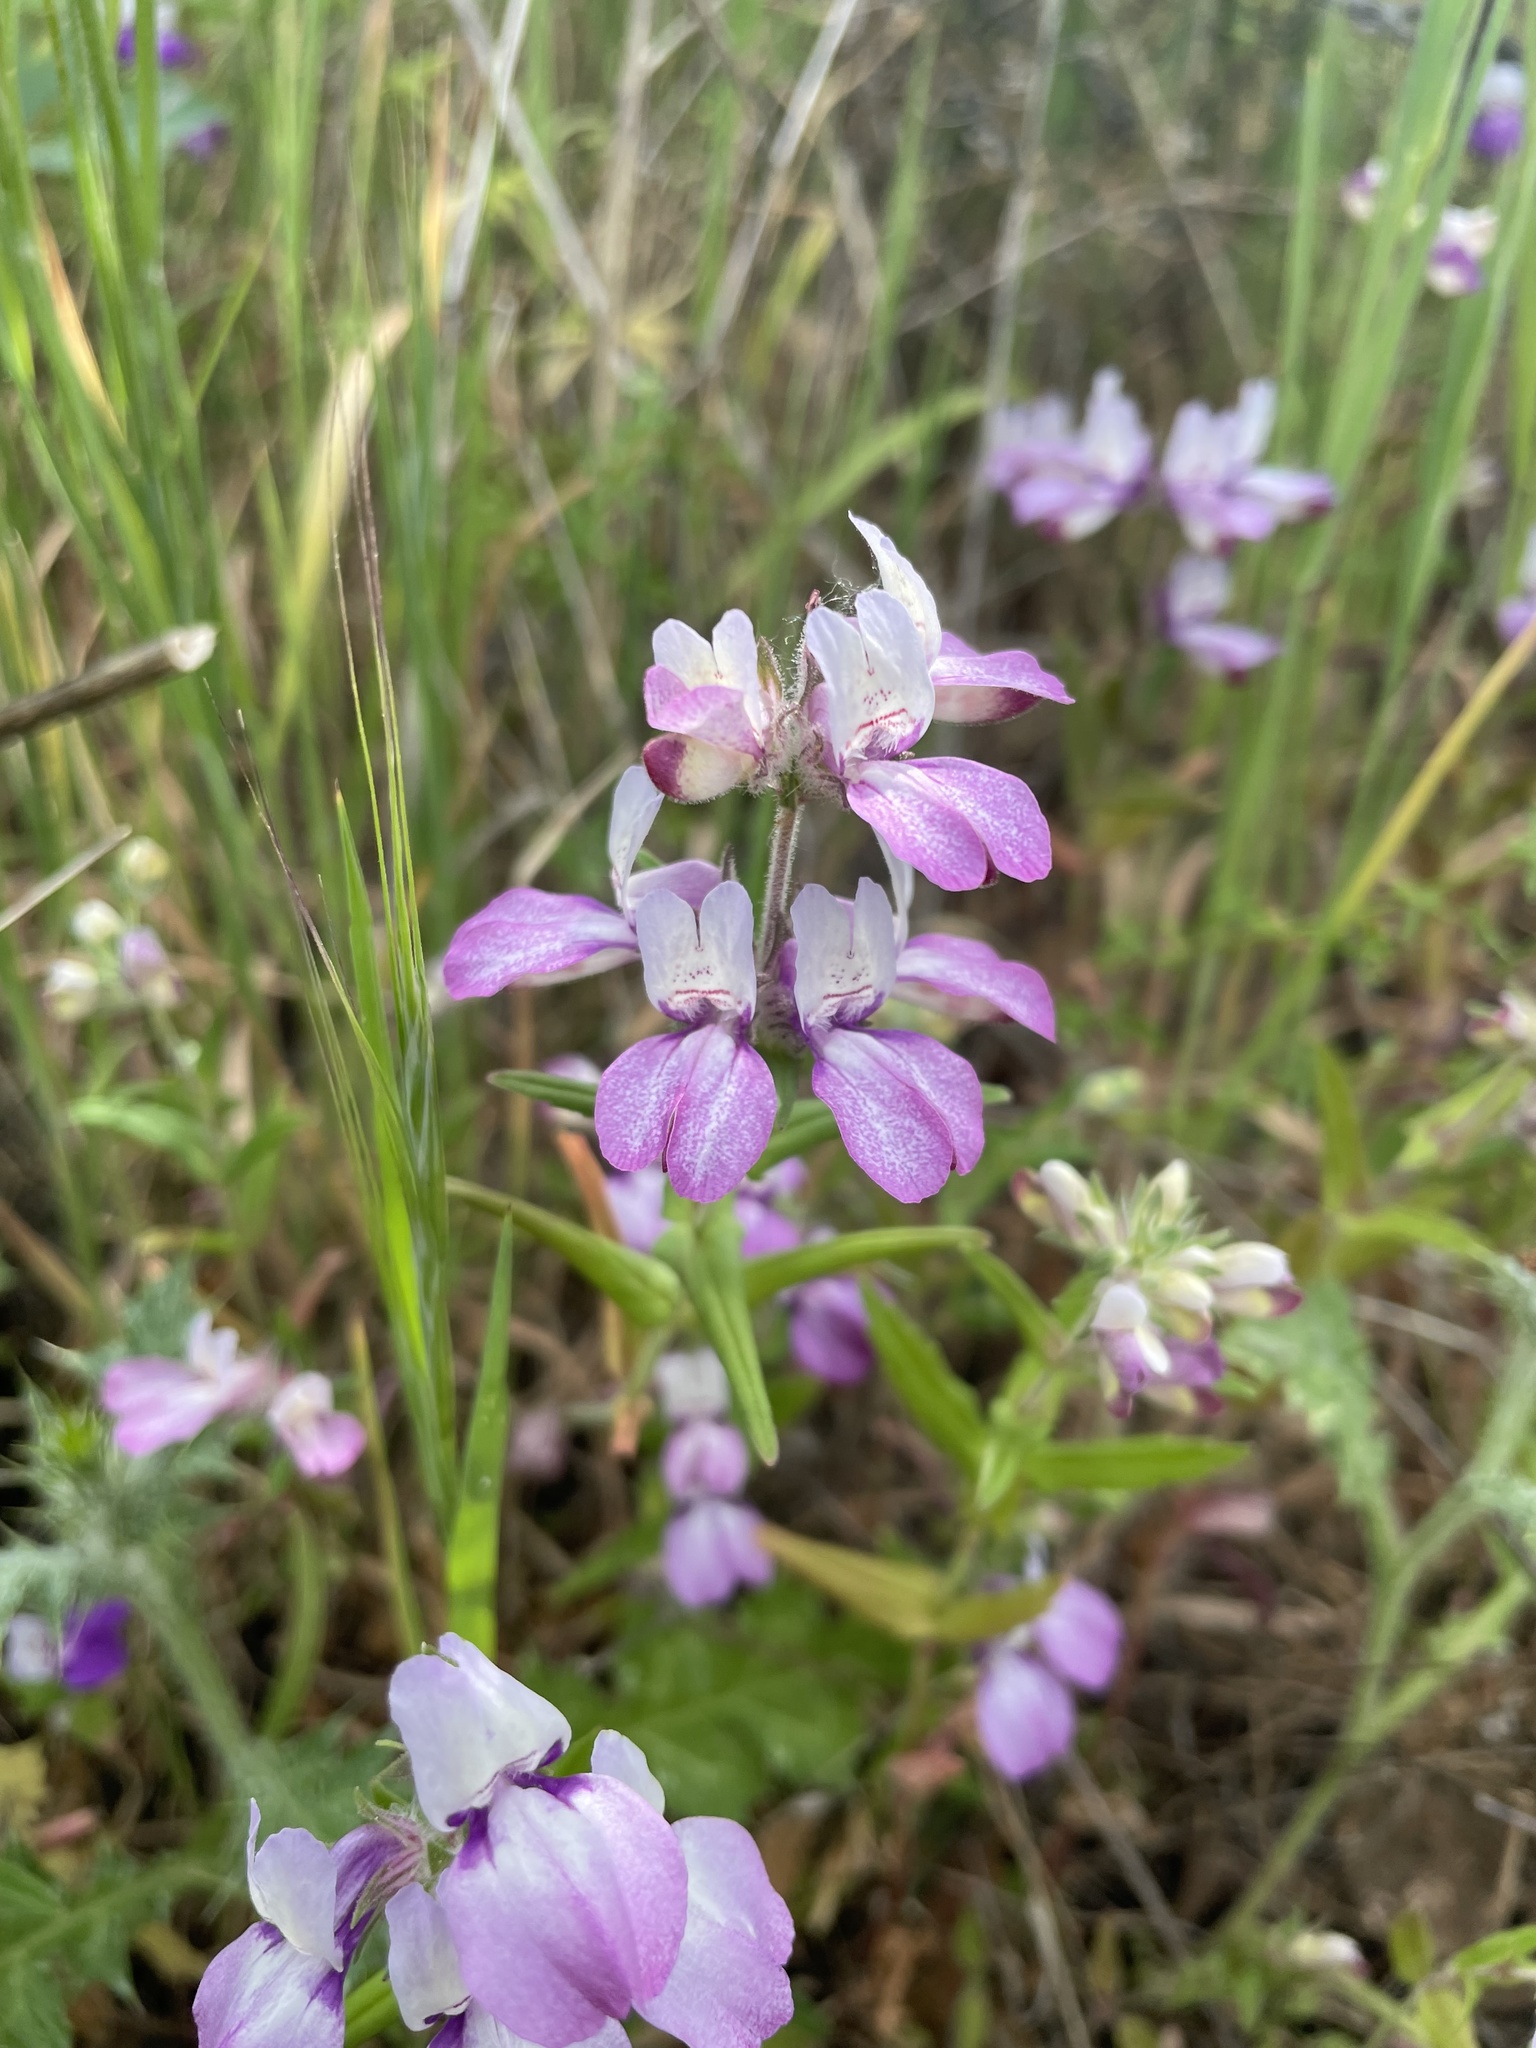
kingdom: Plantae
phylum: Tracheophyta
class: Magnoliopsida
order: Lamiales
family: Plantaginaceae
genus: Collinsia
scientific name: Collinsia heterophylla
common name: Chinese-houses
